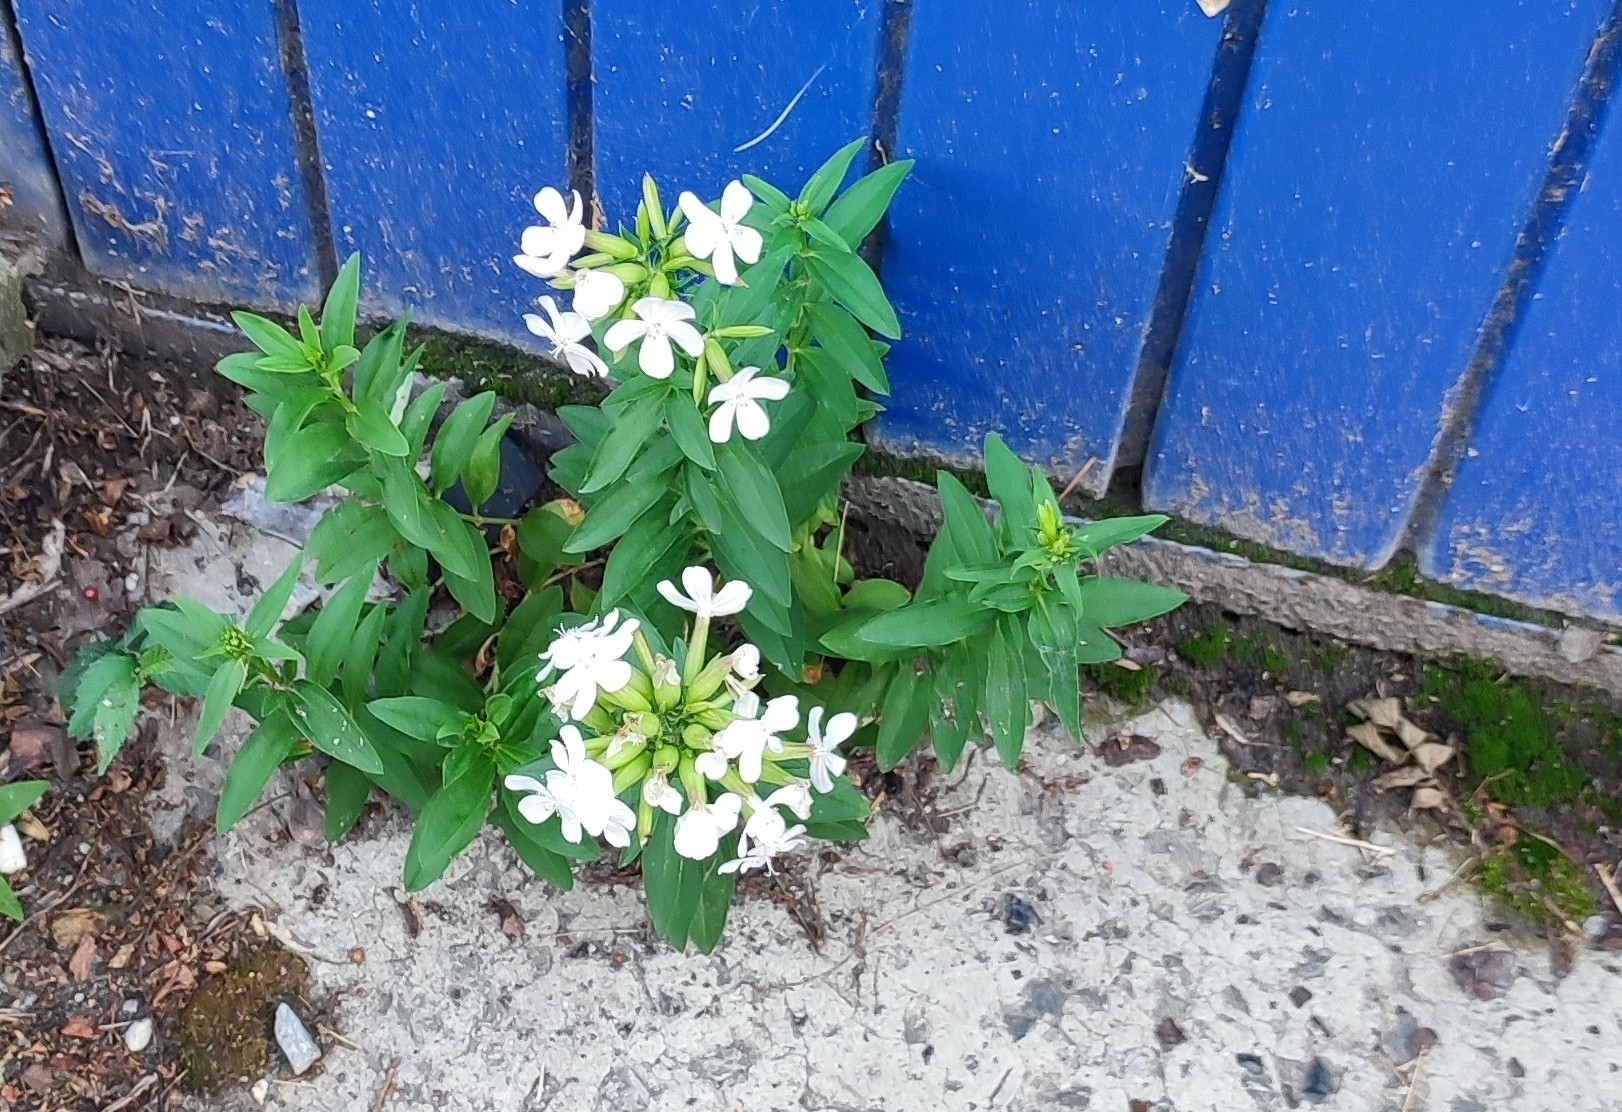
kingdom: Plantae
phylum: Tracheophyta
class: Magnoliopsida
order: Caryophyllales
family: Caryophyllaceae
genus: Saponaria
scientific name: Saponaria officinalis
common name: Soapwort
